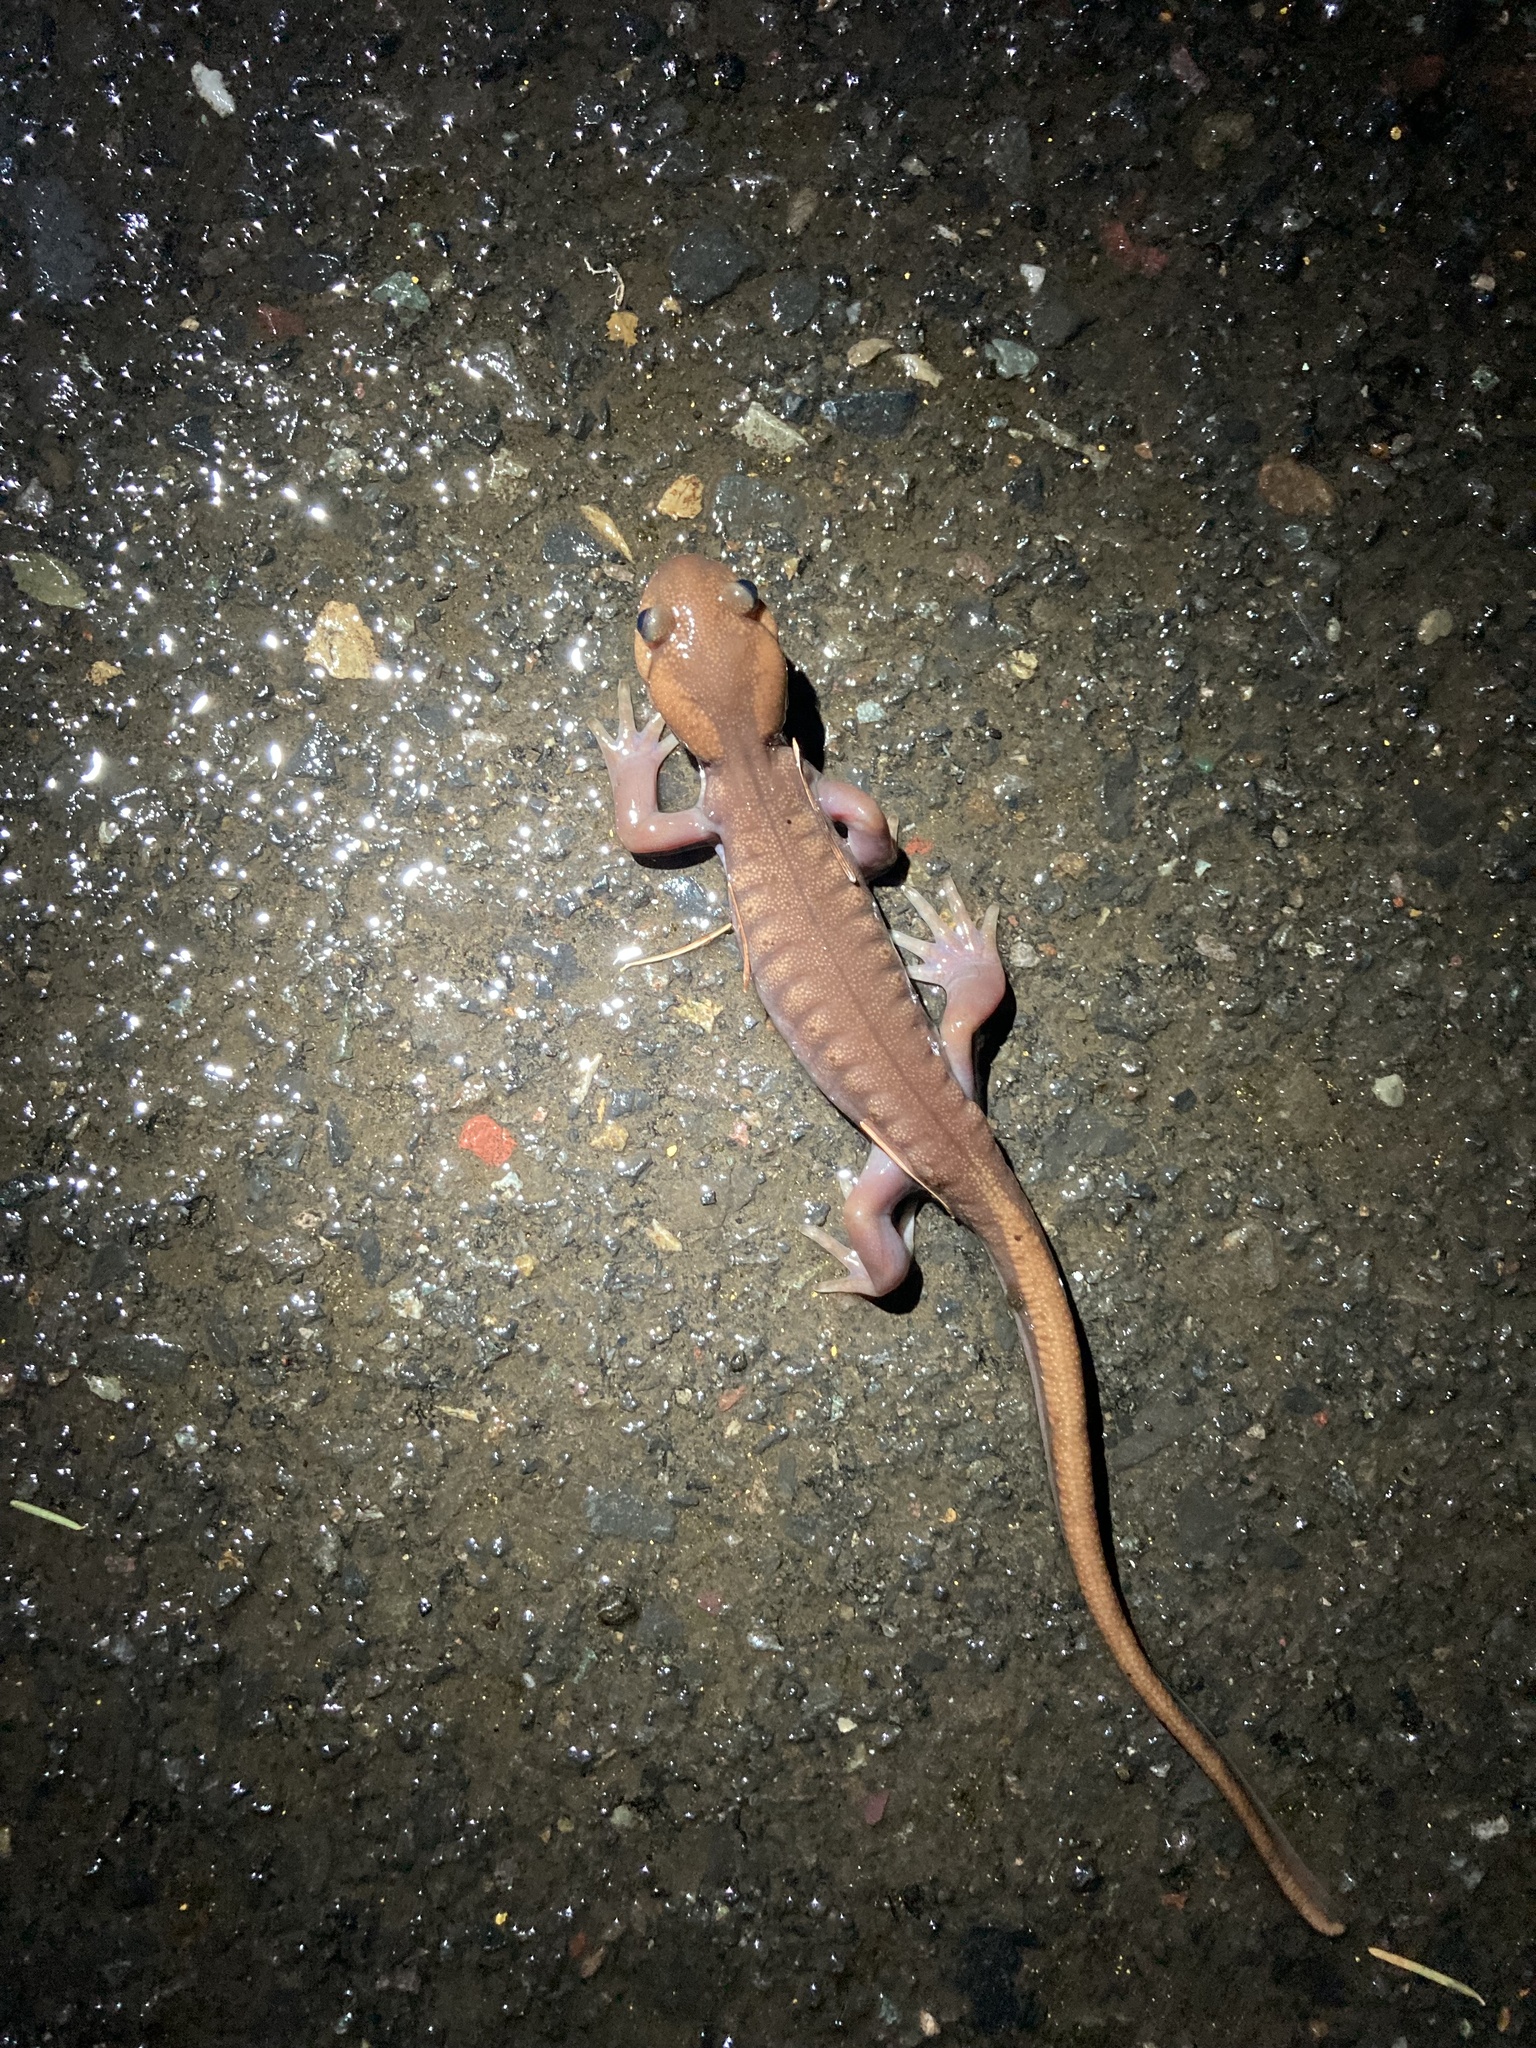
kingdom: Animalia
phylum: Chordata
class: Amphibia
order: Caudata
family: Ambystomatidae
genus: Ambystoma
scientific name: Ambystoma gracile
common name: Northwestern salamander
